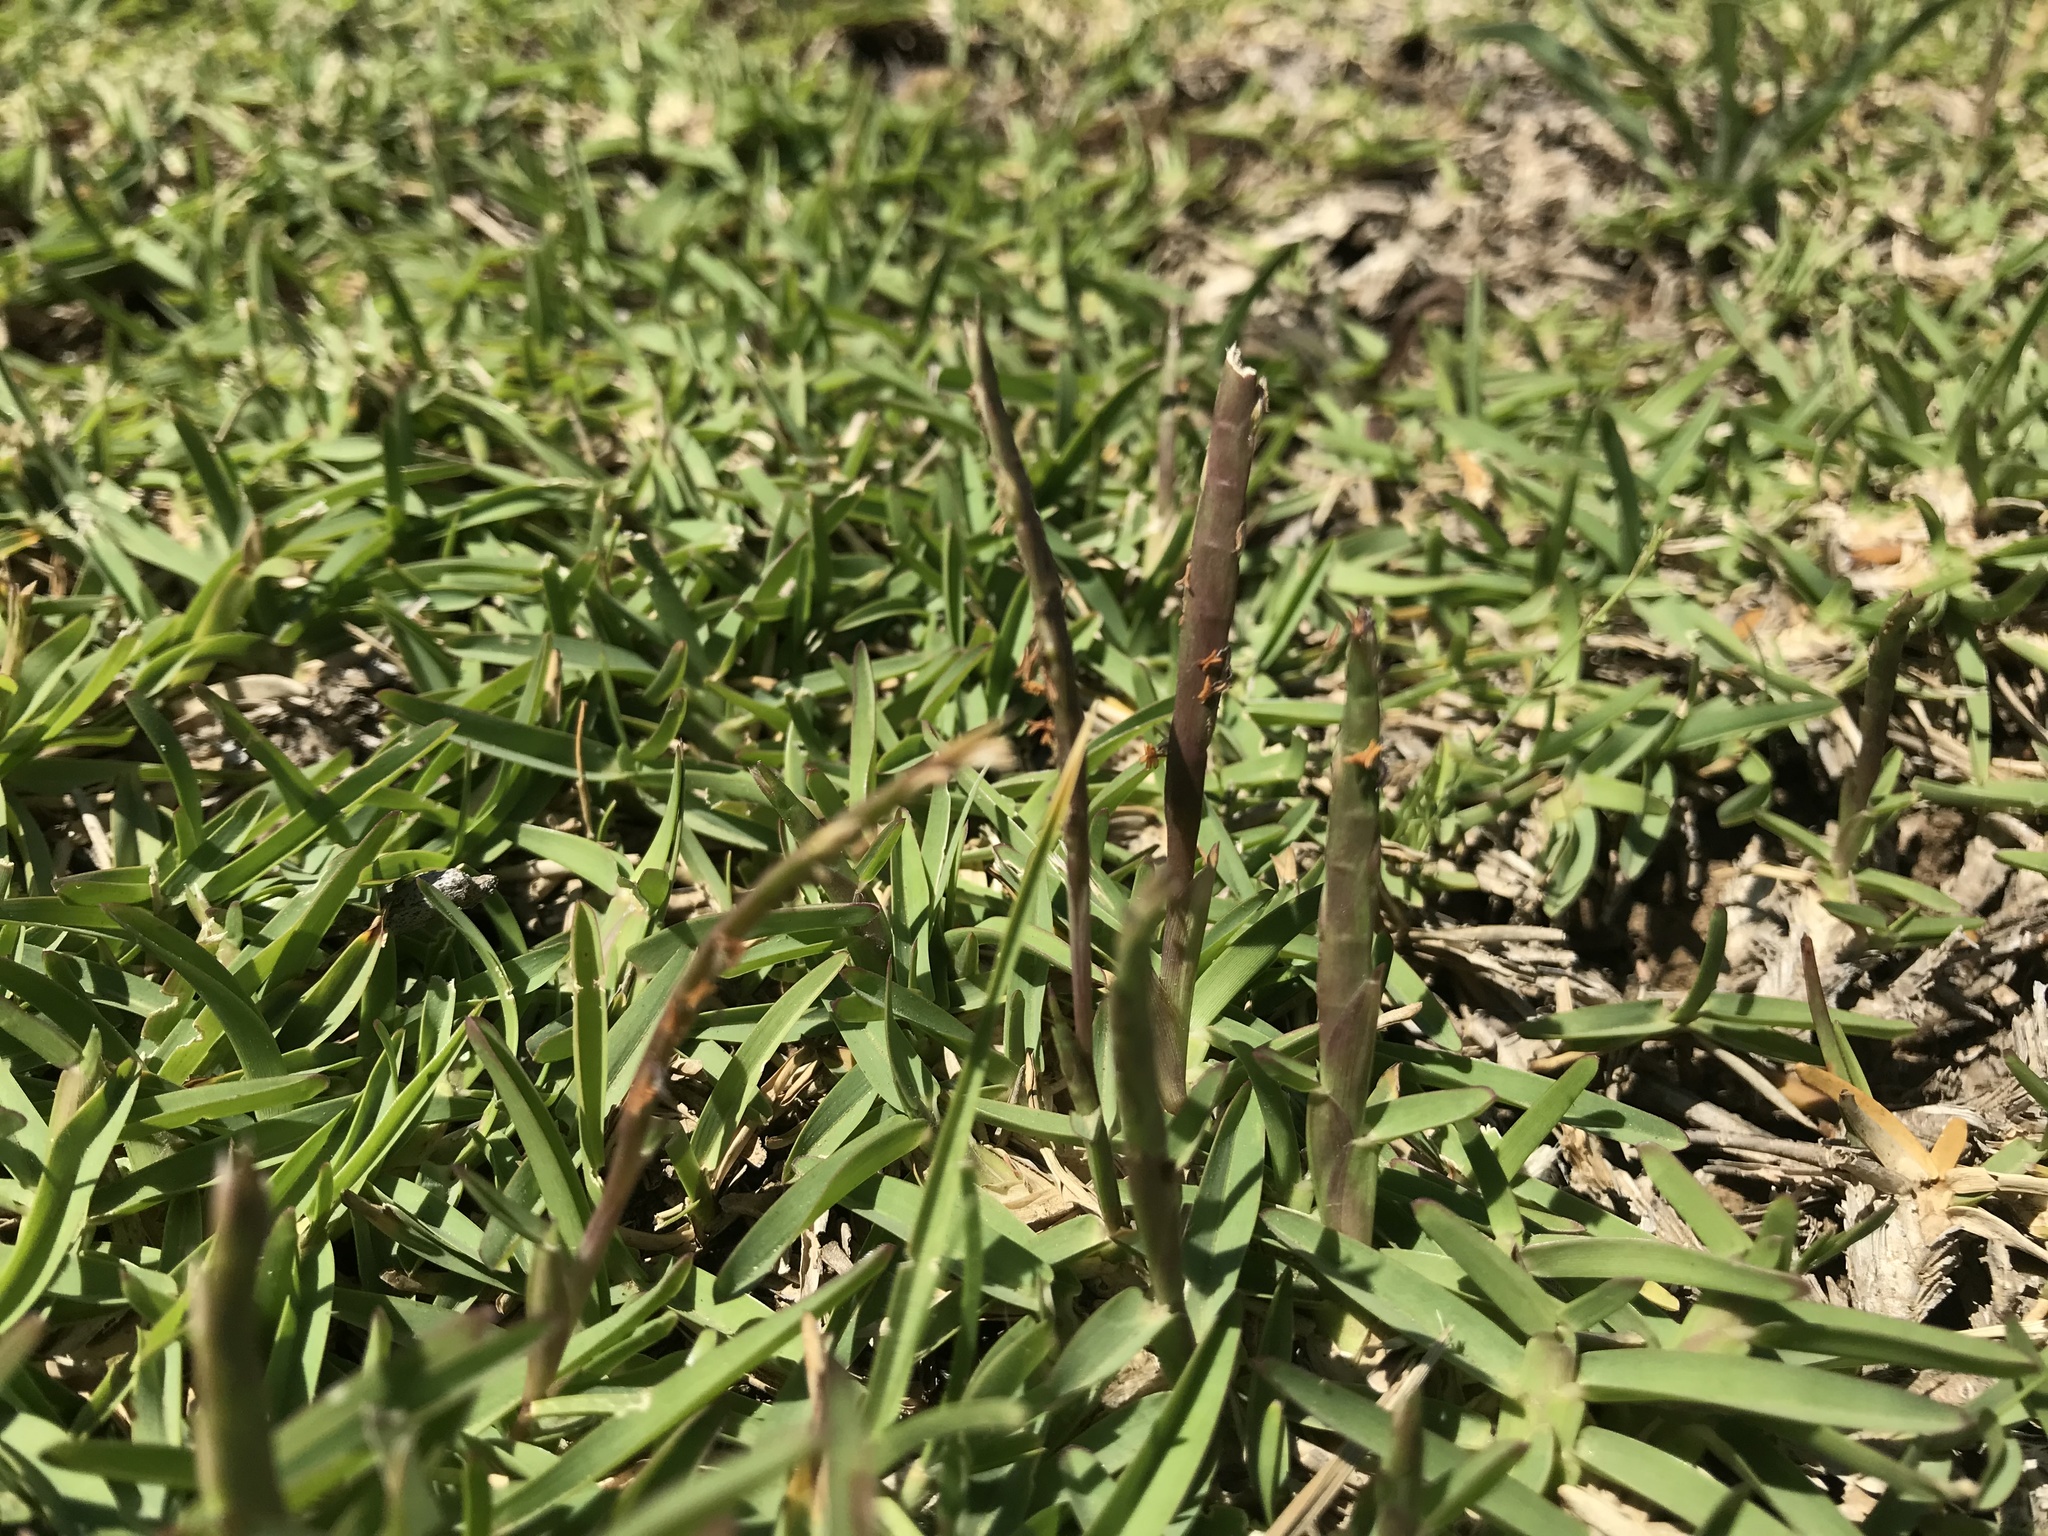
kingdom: Plantae
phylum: Tracheophyta
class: Liliopsida
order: Poales
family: Poaceae
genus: Stenotaphrum
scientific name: Stenotaphrum secundatum
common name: St. augustine grass
